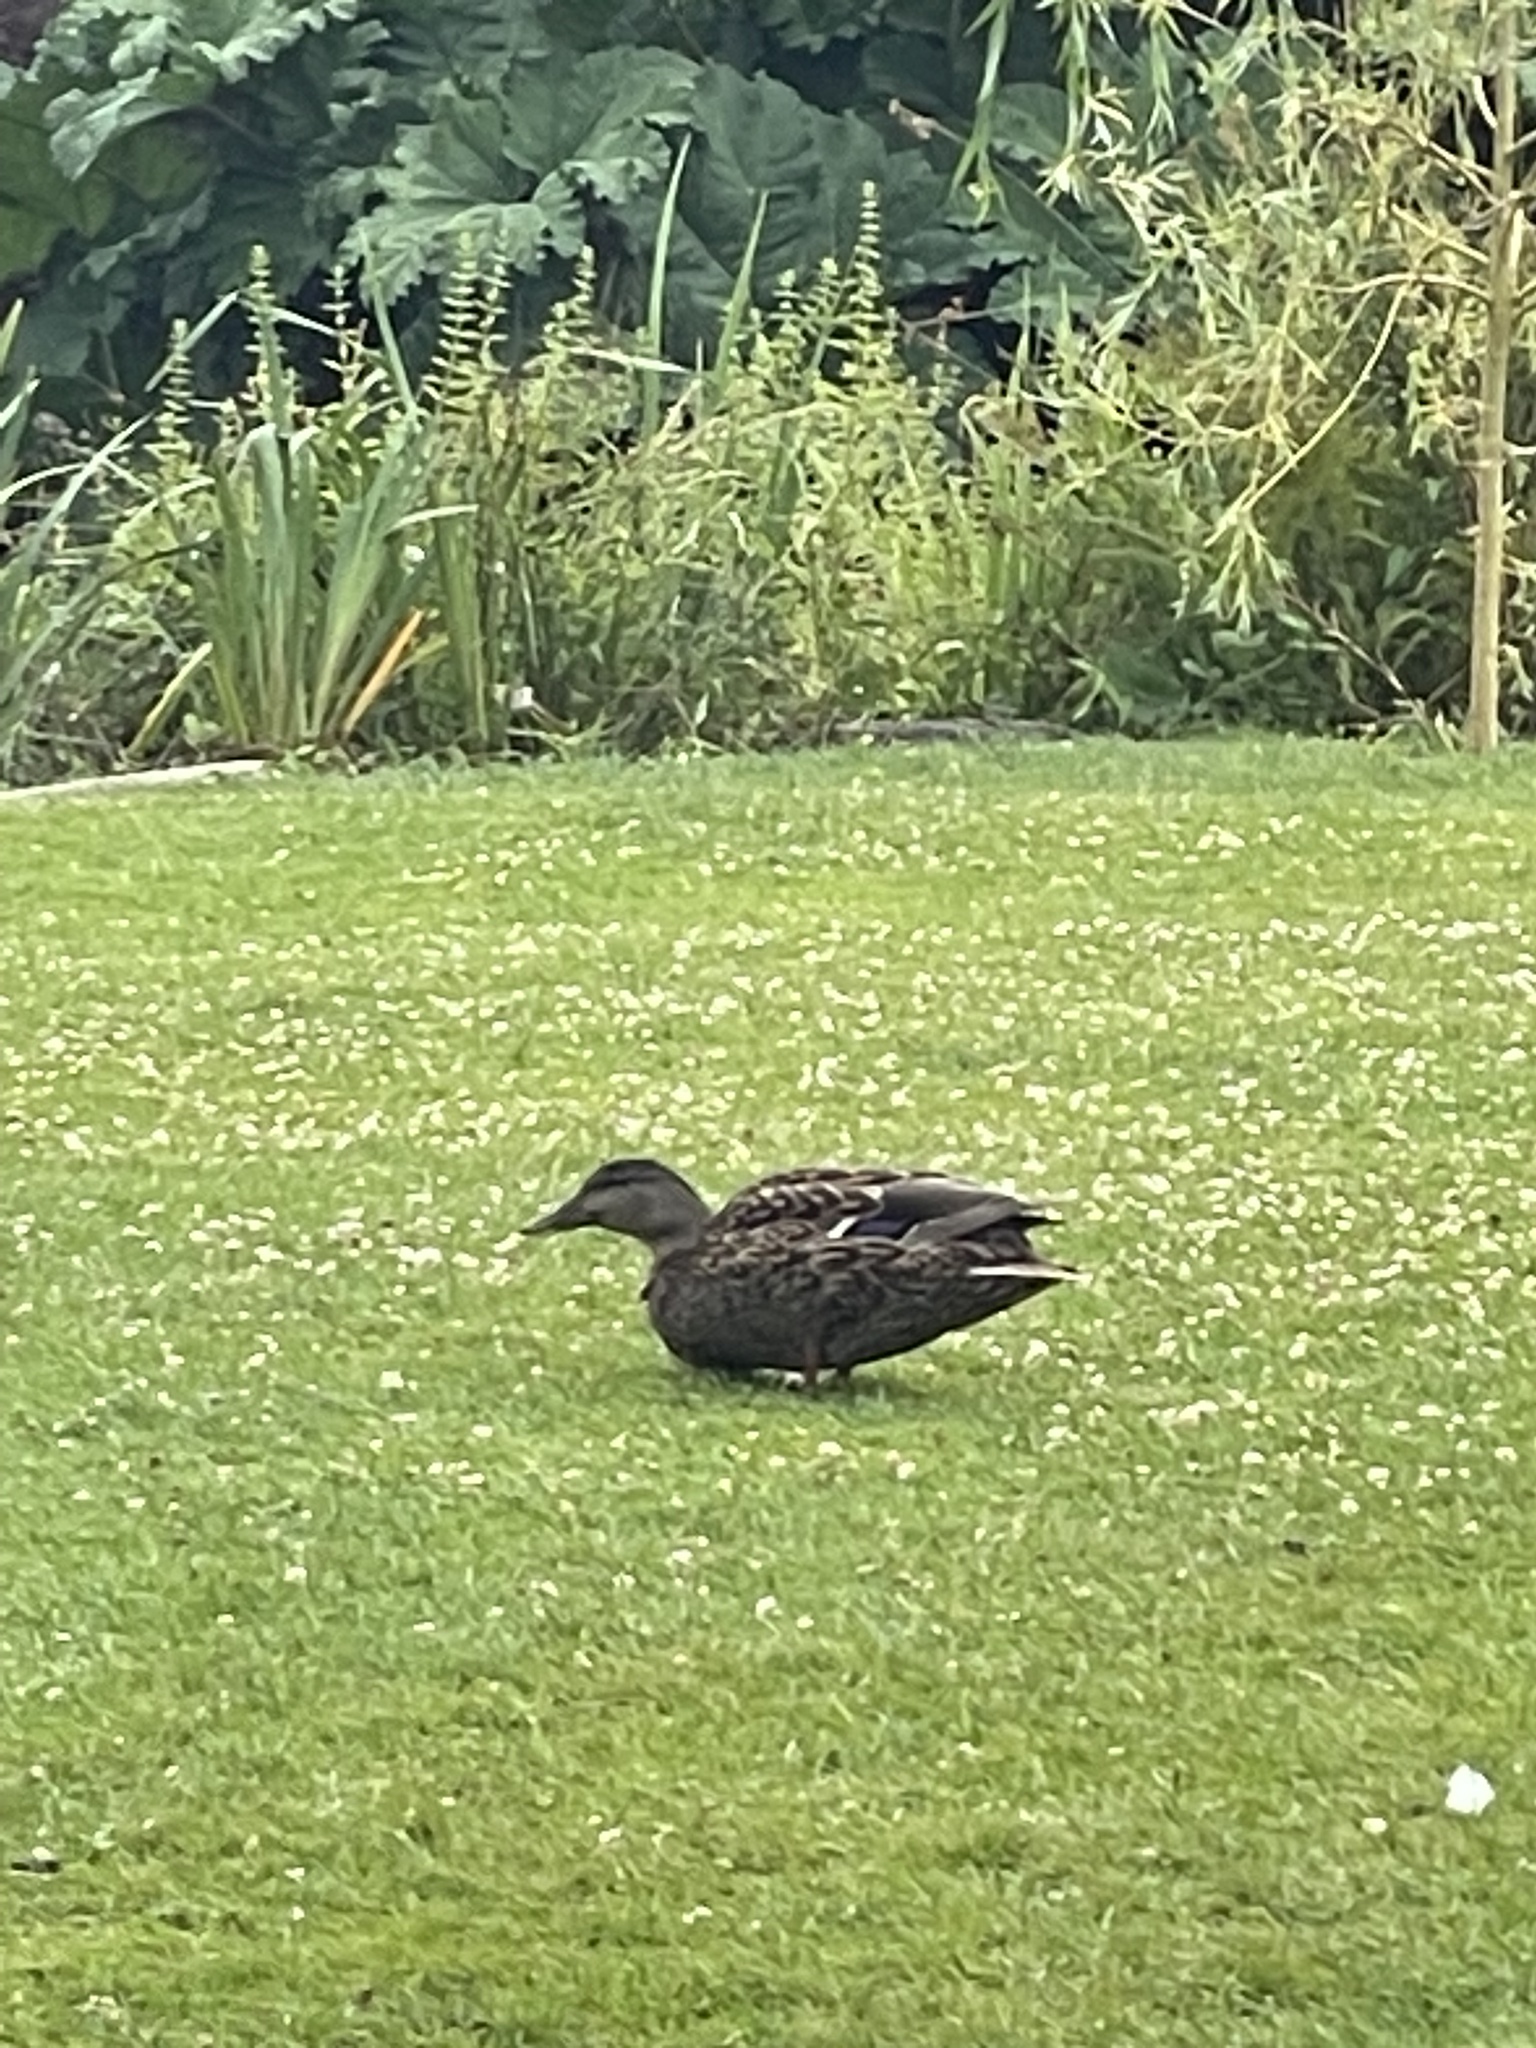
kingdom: Animalia
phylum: Chordata
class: Aves
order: Anseriformes
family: Anatidae
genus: Anas
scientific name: Anas platyrhynchos
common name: Mallard
